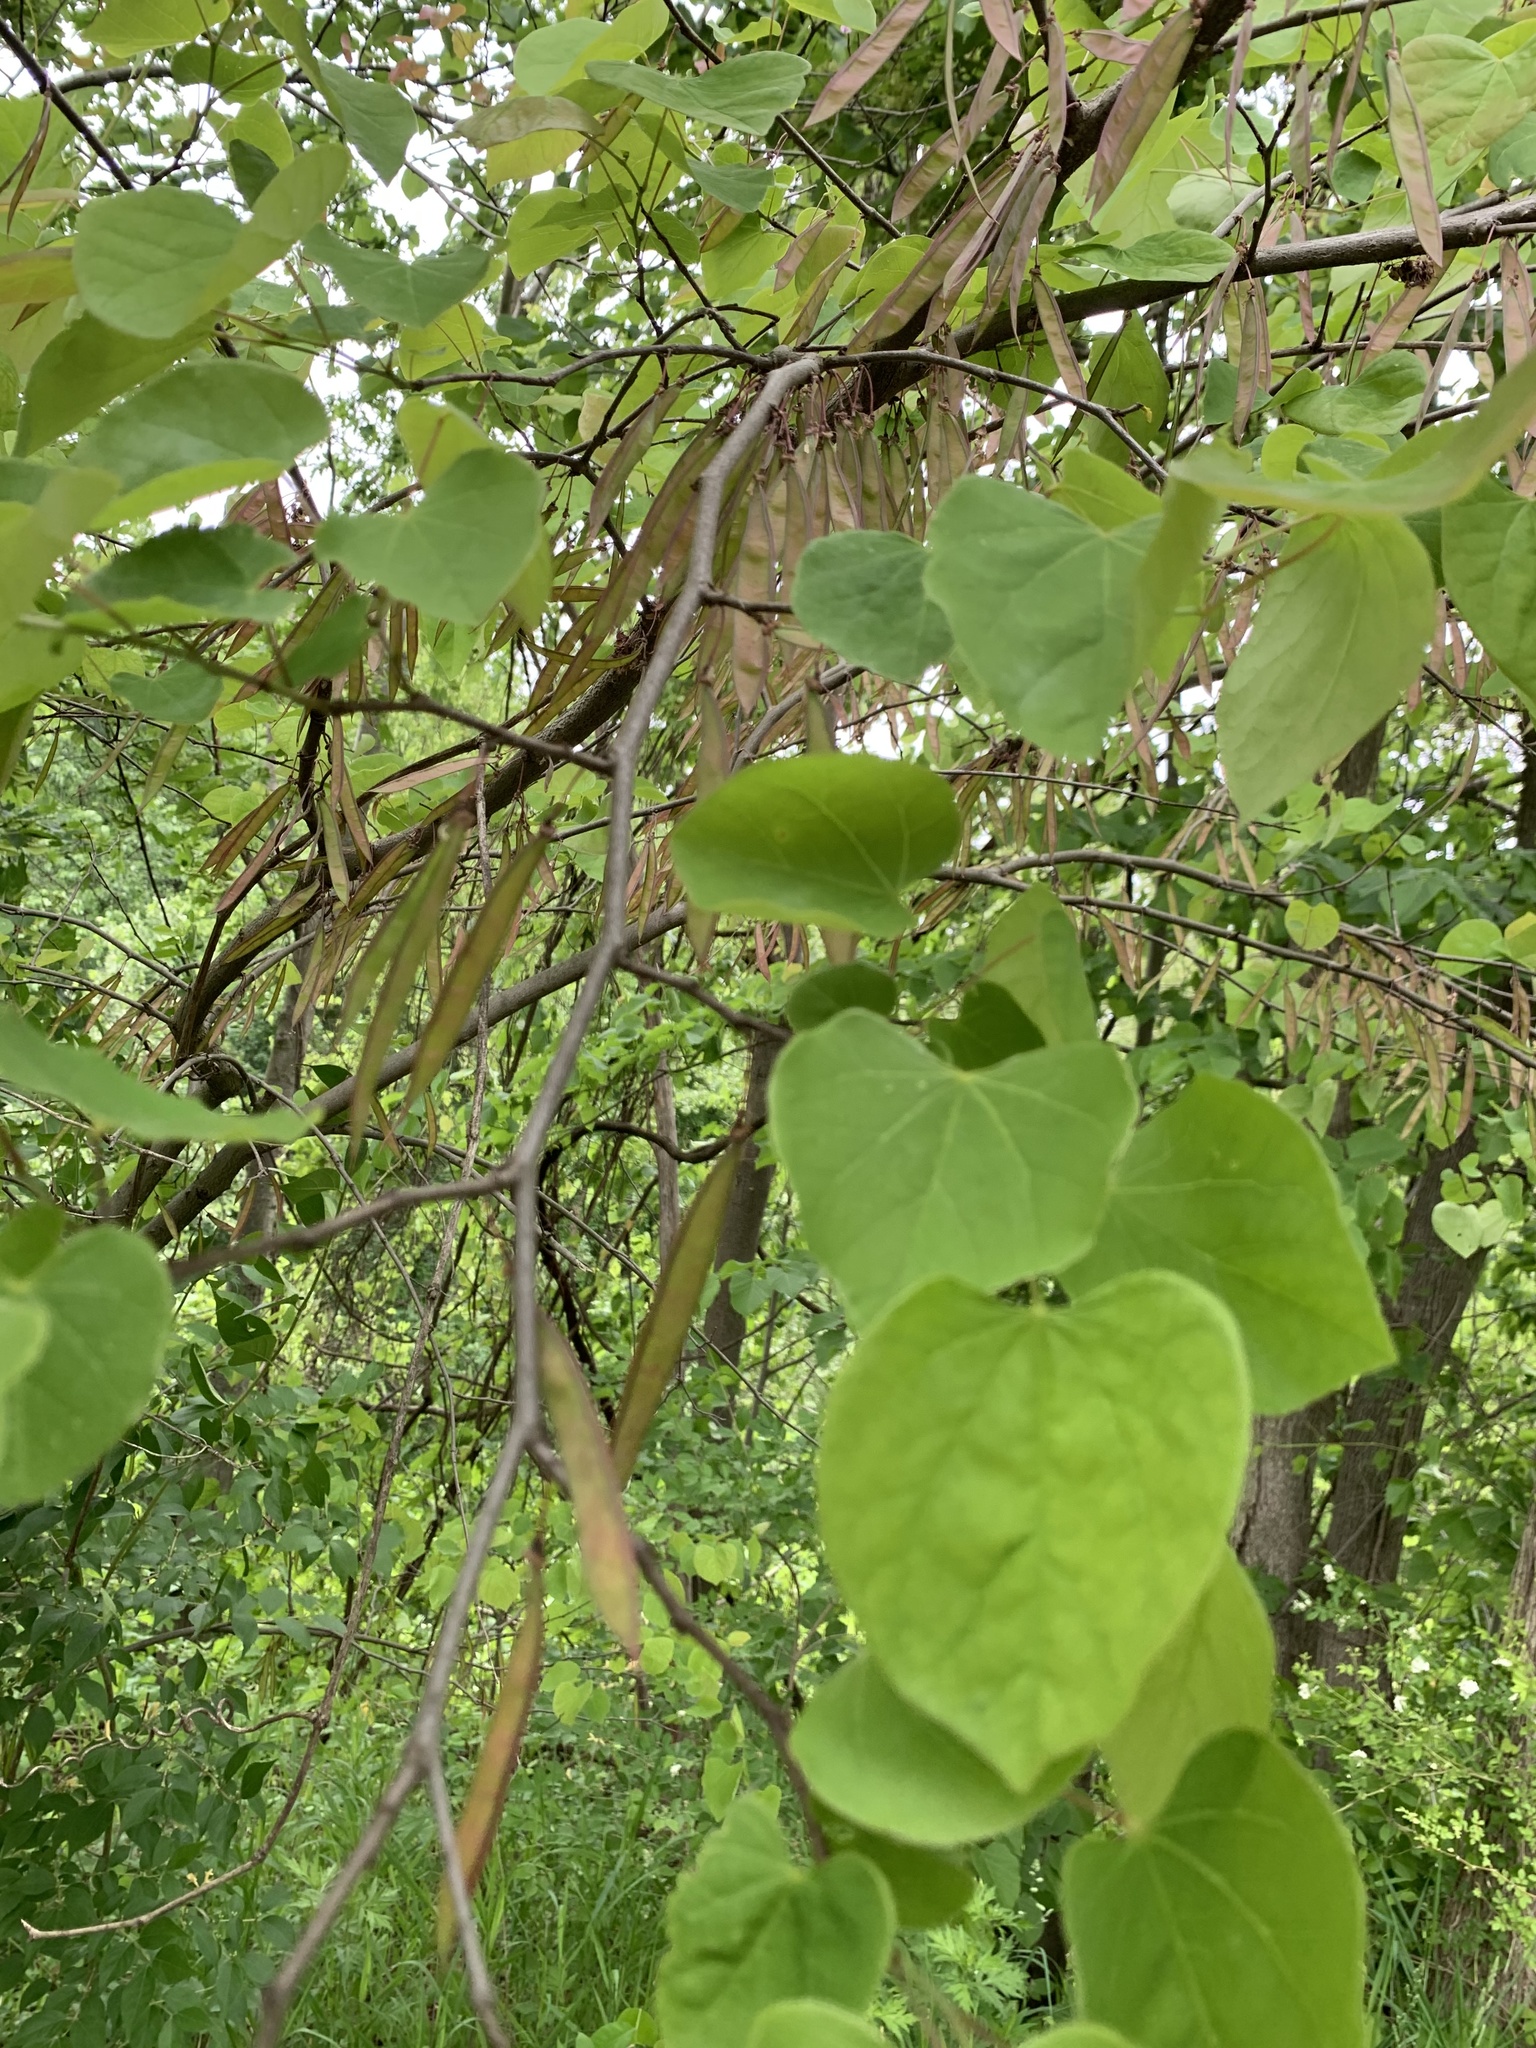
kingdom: Plantae
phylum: Tracheophyta
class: Magnoliopsida
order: Fabales
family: Fabaceae
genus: Cercis
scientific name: Cercis canadensis
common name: Eastern redbud
